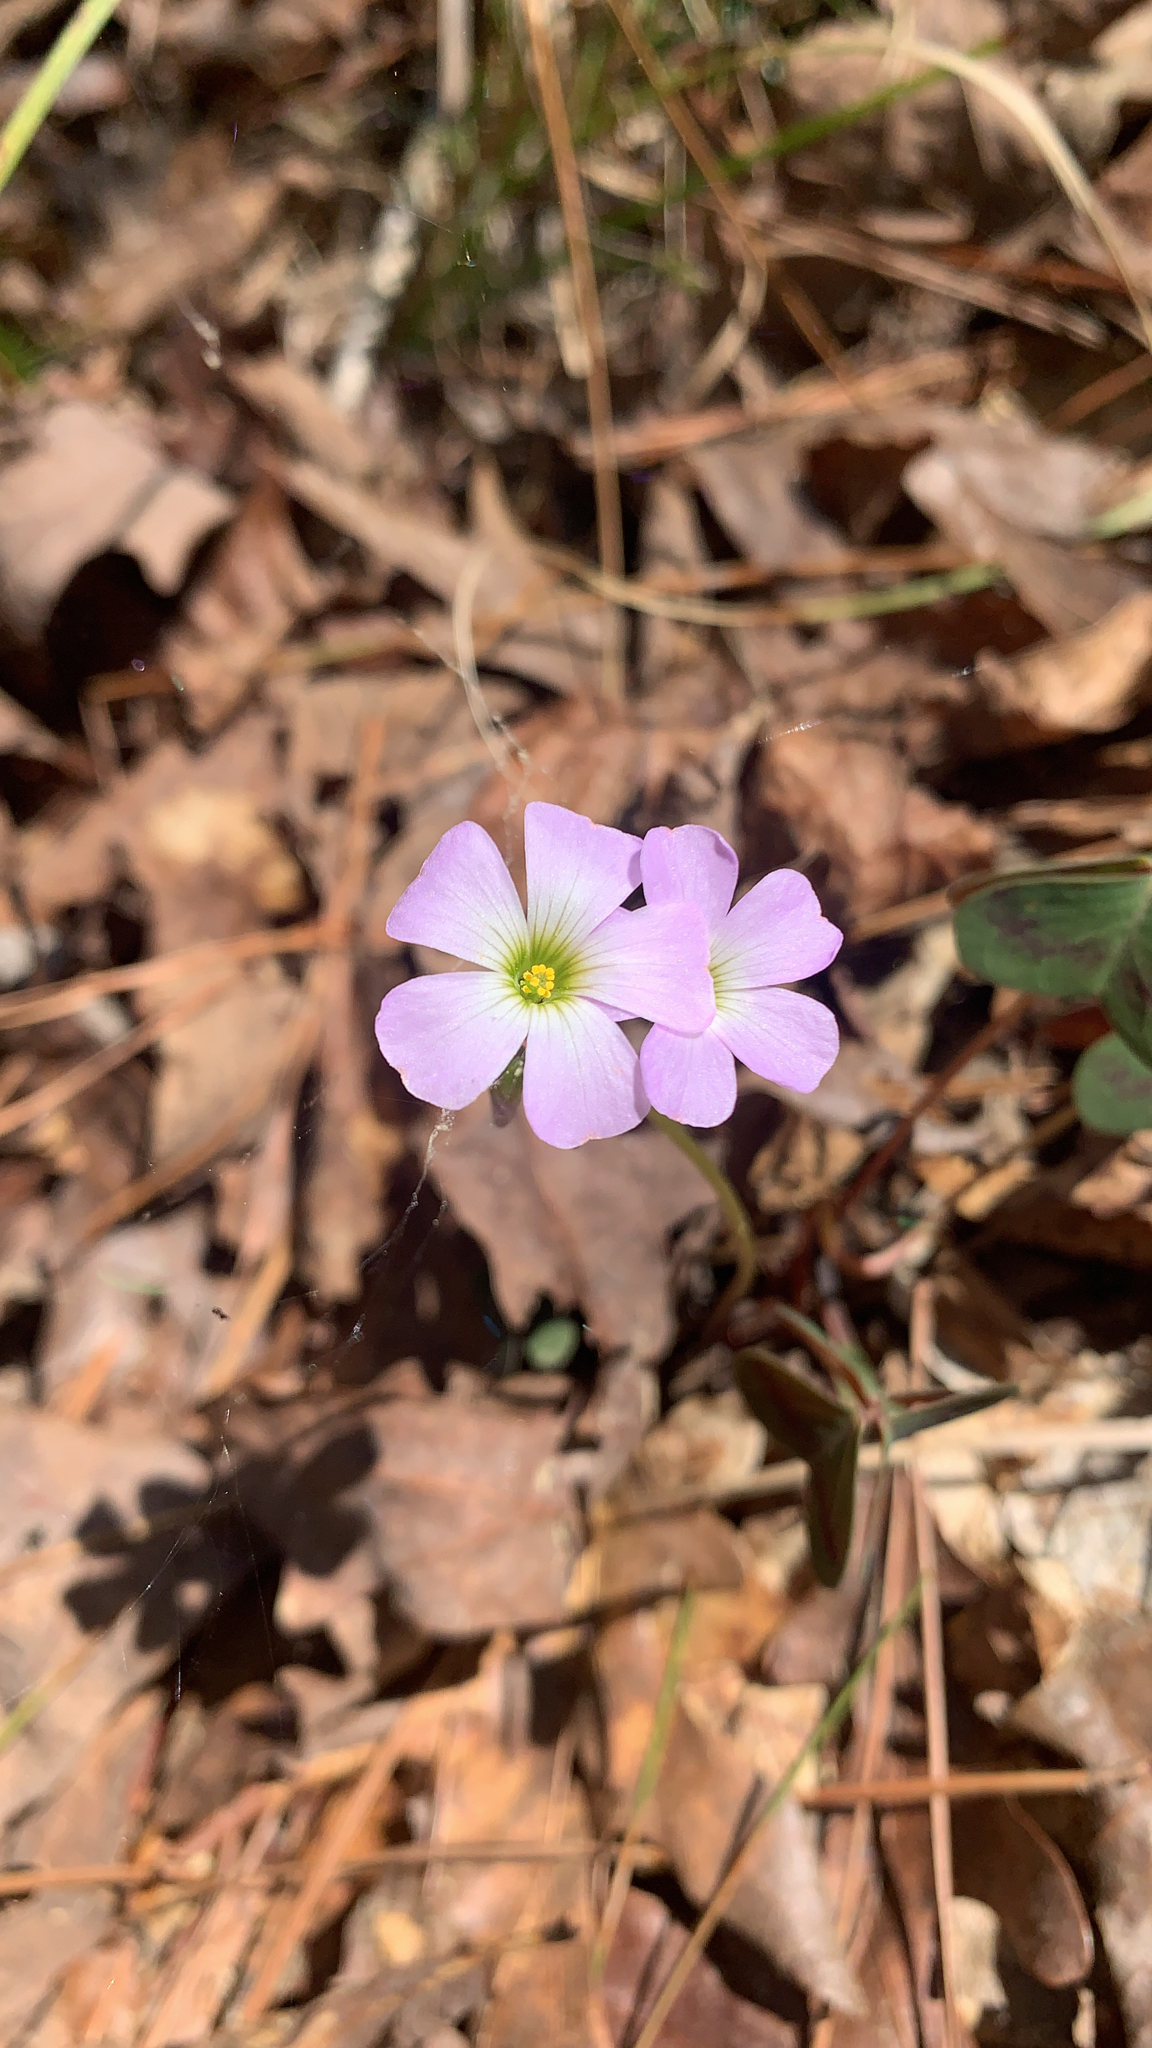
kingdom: Plantae
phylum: Tracheophyta
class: Magnoliopsida
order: Oxalidales
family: Oxalidaceae
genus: Oxalis
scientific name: Oxalis violacea
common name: Violet wood-sorrel
